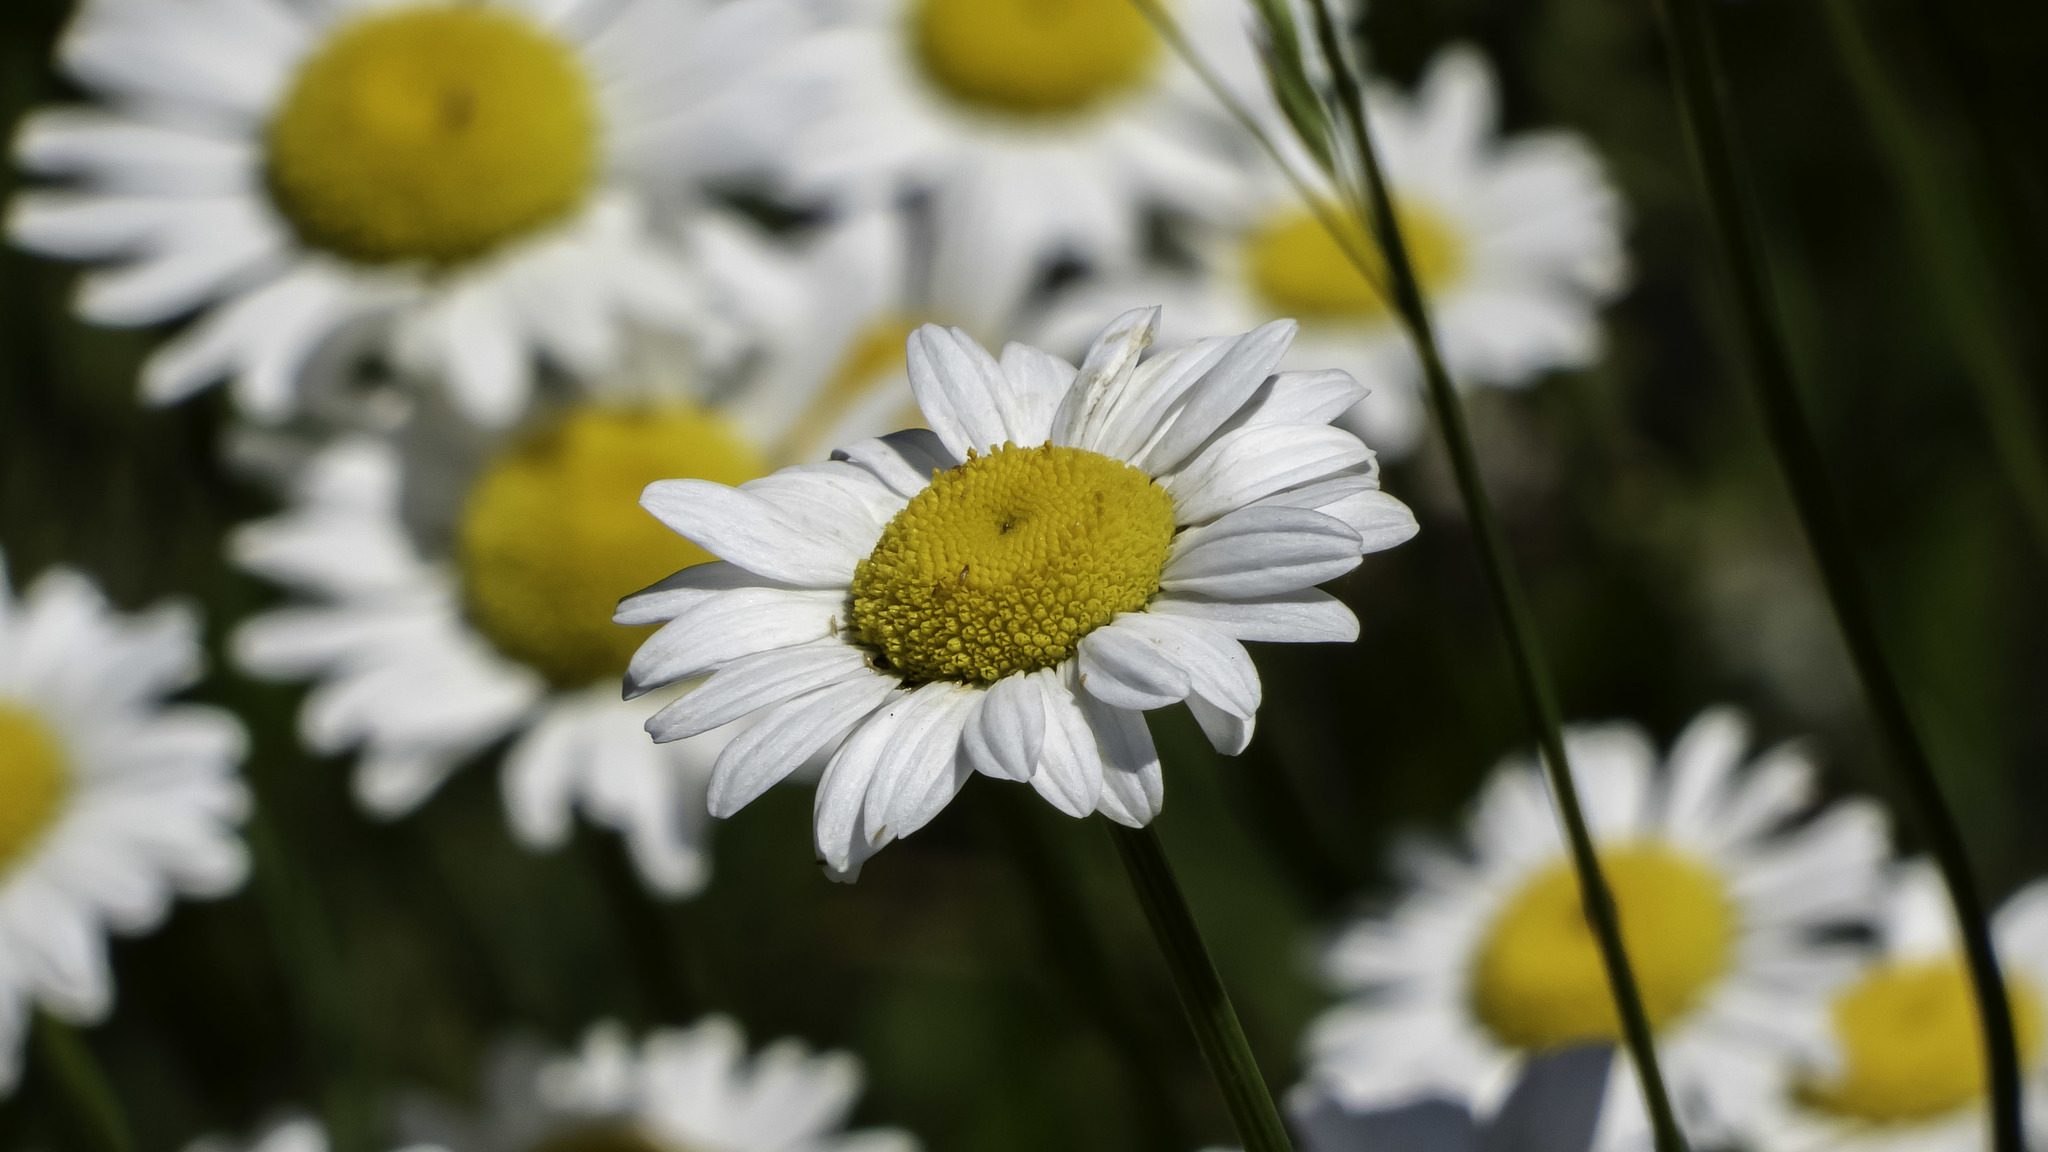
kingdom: Plantae
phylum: Tracheophyta
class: Magnoliopsida
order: Asterales
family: Asteraceae
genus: Leucanthemum
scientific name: Leucanthemum vulgare
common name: Oxeye daisy
